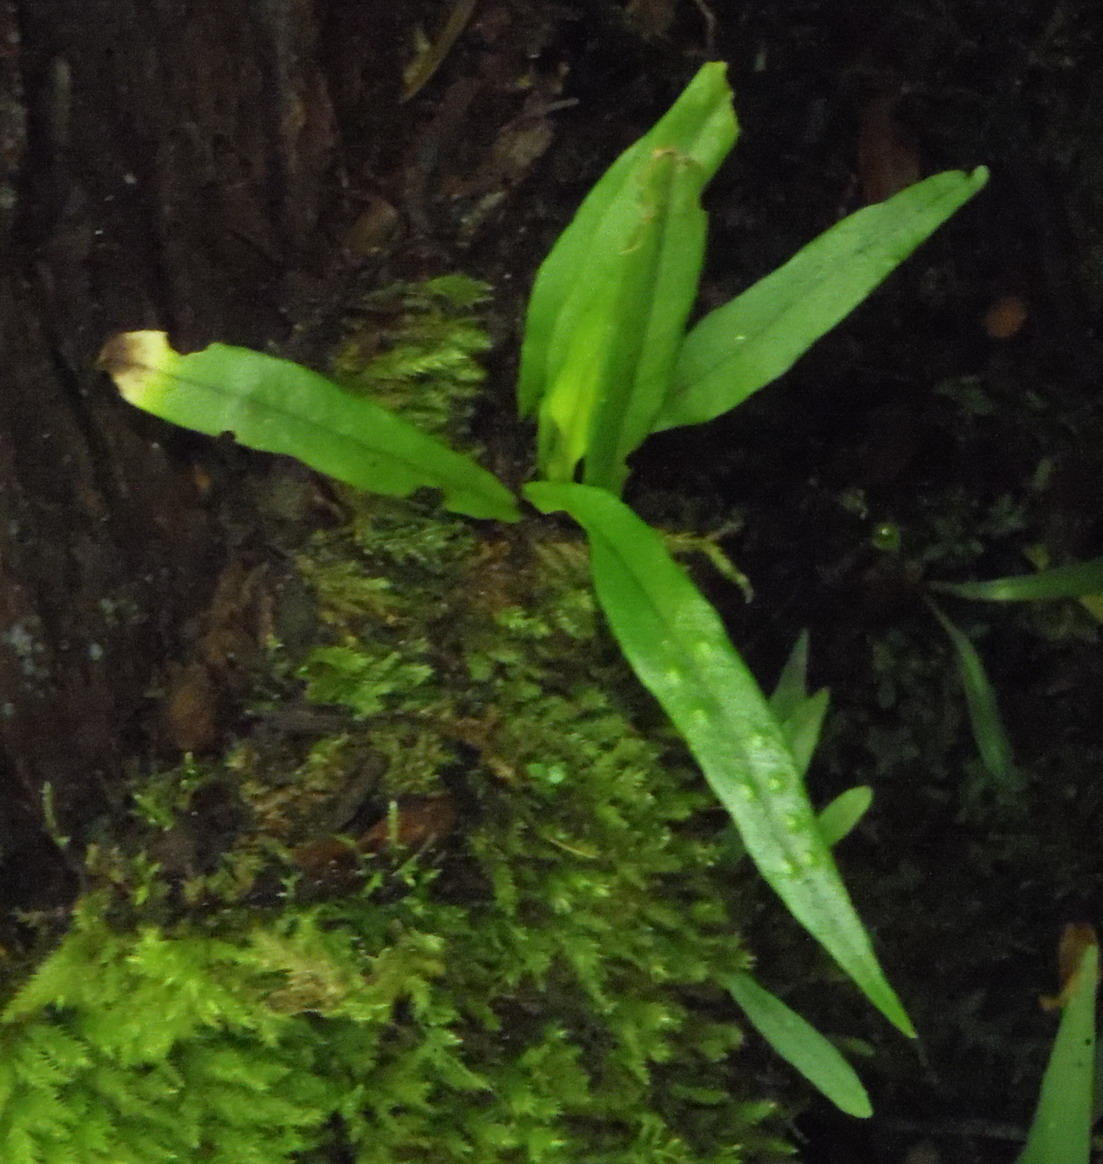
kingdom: Plantae
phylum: Tracheophyta
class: Polypodiopsida
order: Polypodiales
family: Polypodiaceae
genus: Lepisorus
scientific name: Lepisorus schraderi
